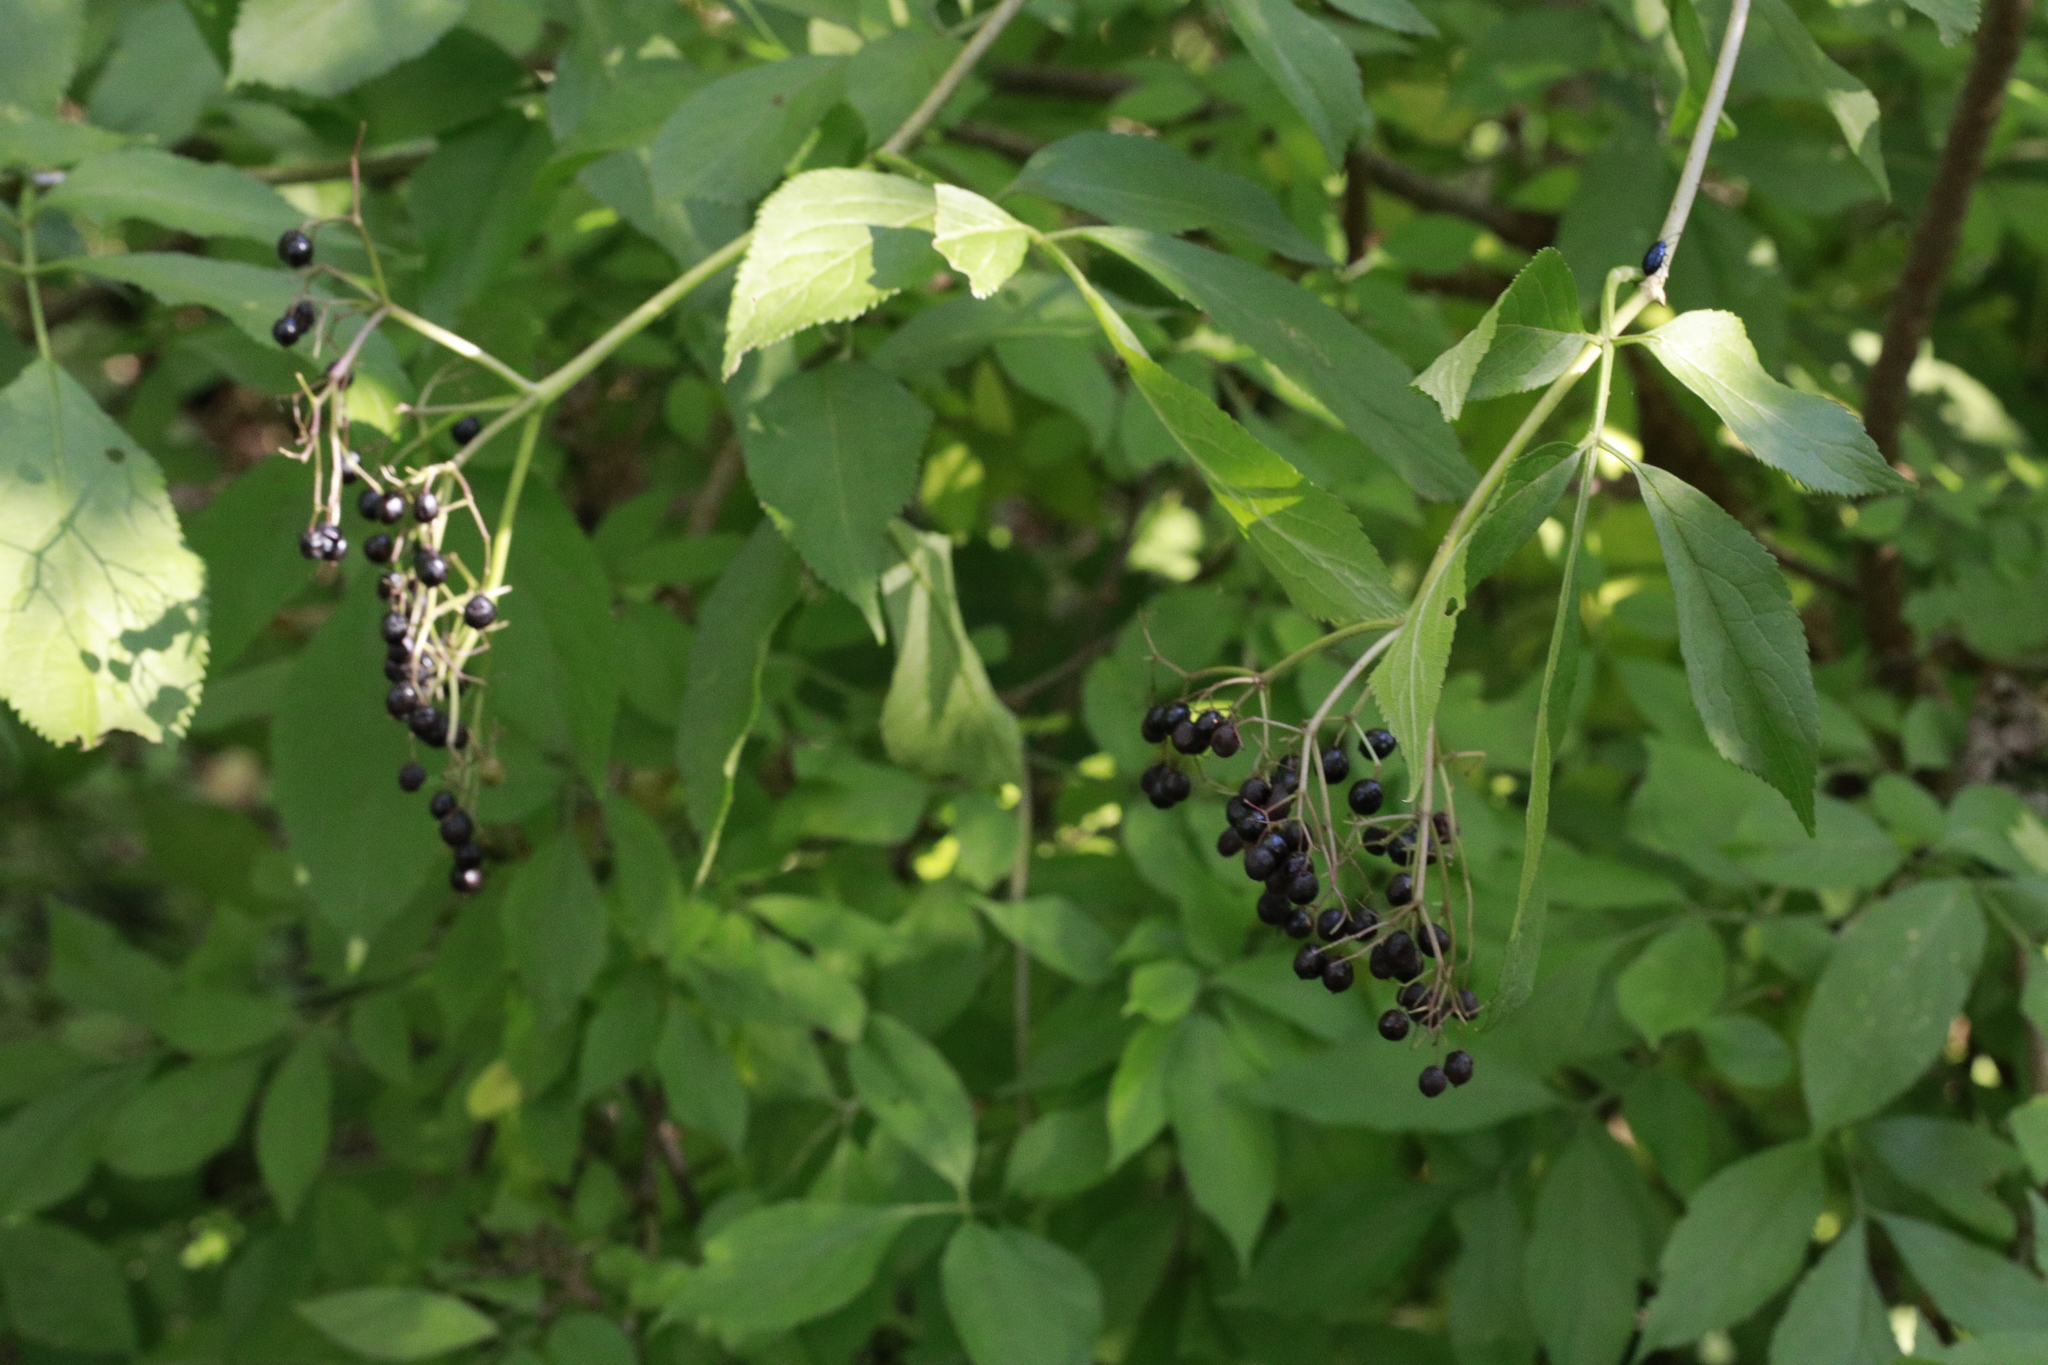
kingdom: Plantae
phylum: Tracheophyta
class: Magnoliopsida
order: Dipsacales
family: Viburnaceae
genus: Sambucus
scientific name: Sambucus nigra
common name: Elder
